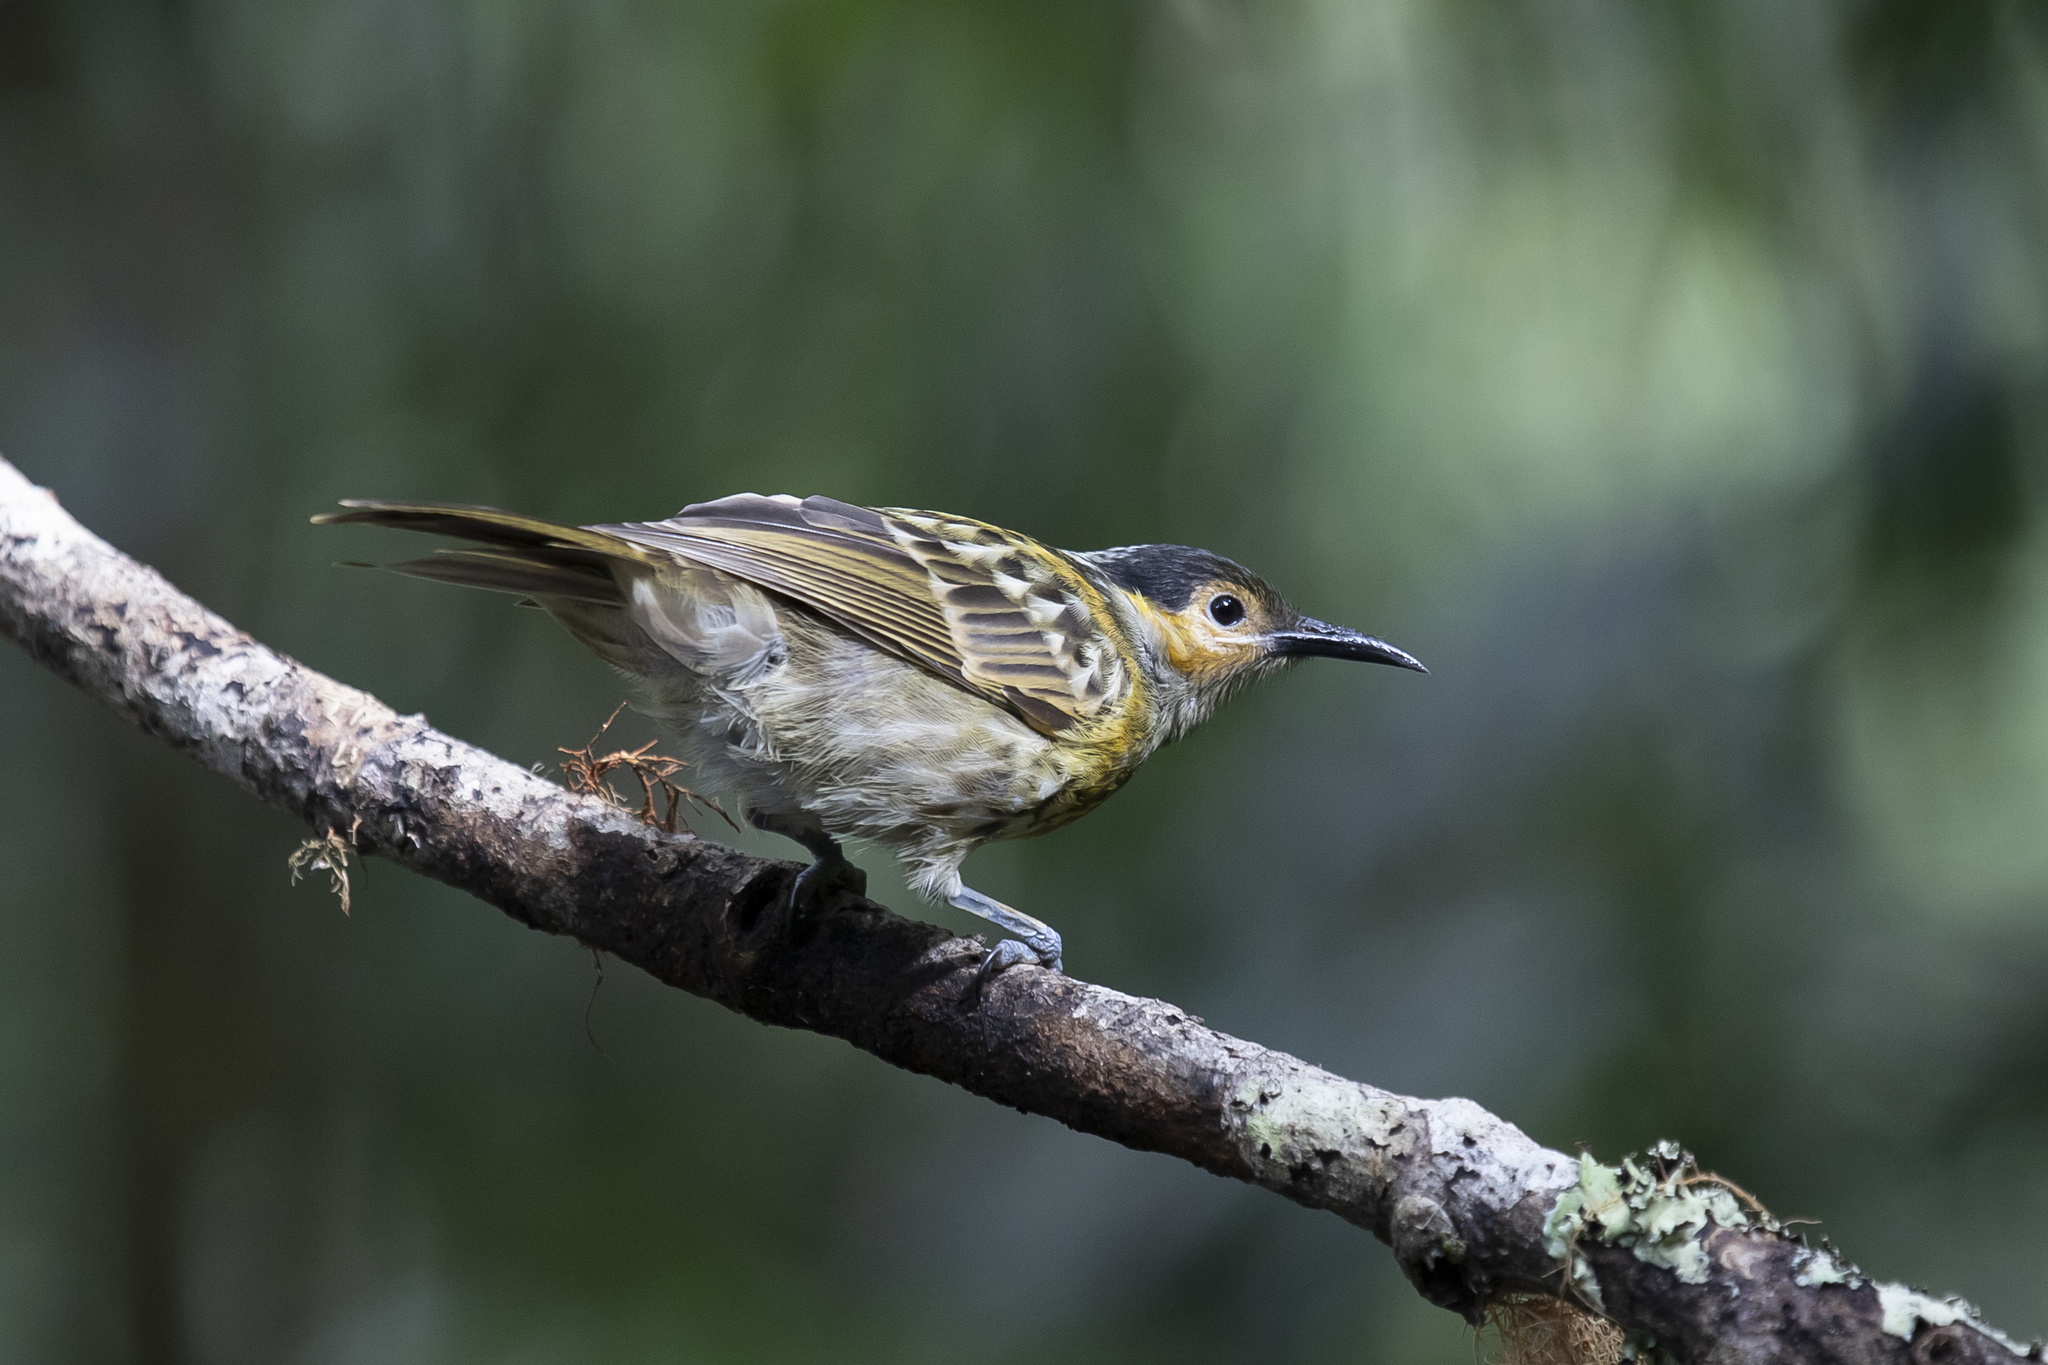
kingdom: Animalia
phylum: Chordata
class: Aves
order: Passeriformes
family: Meliphagidae
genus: Xanthotis
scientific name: Xanthotis macleayanus
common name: Macleay's honeyeater
